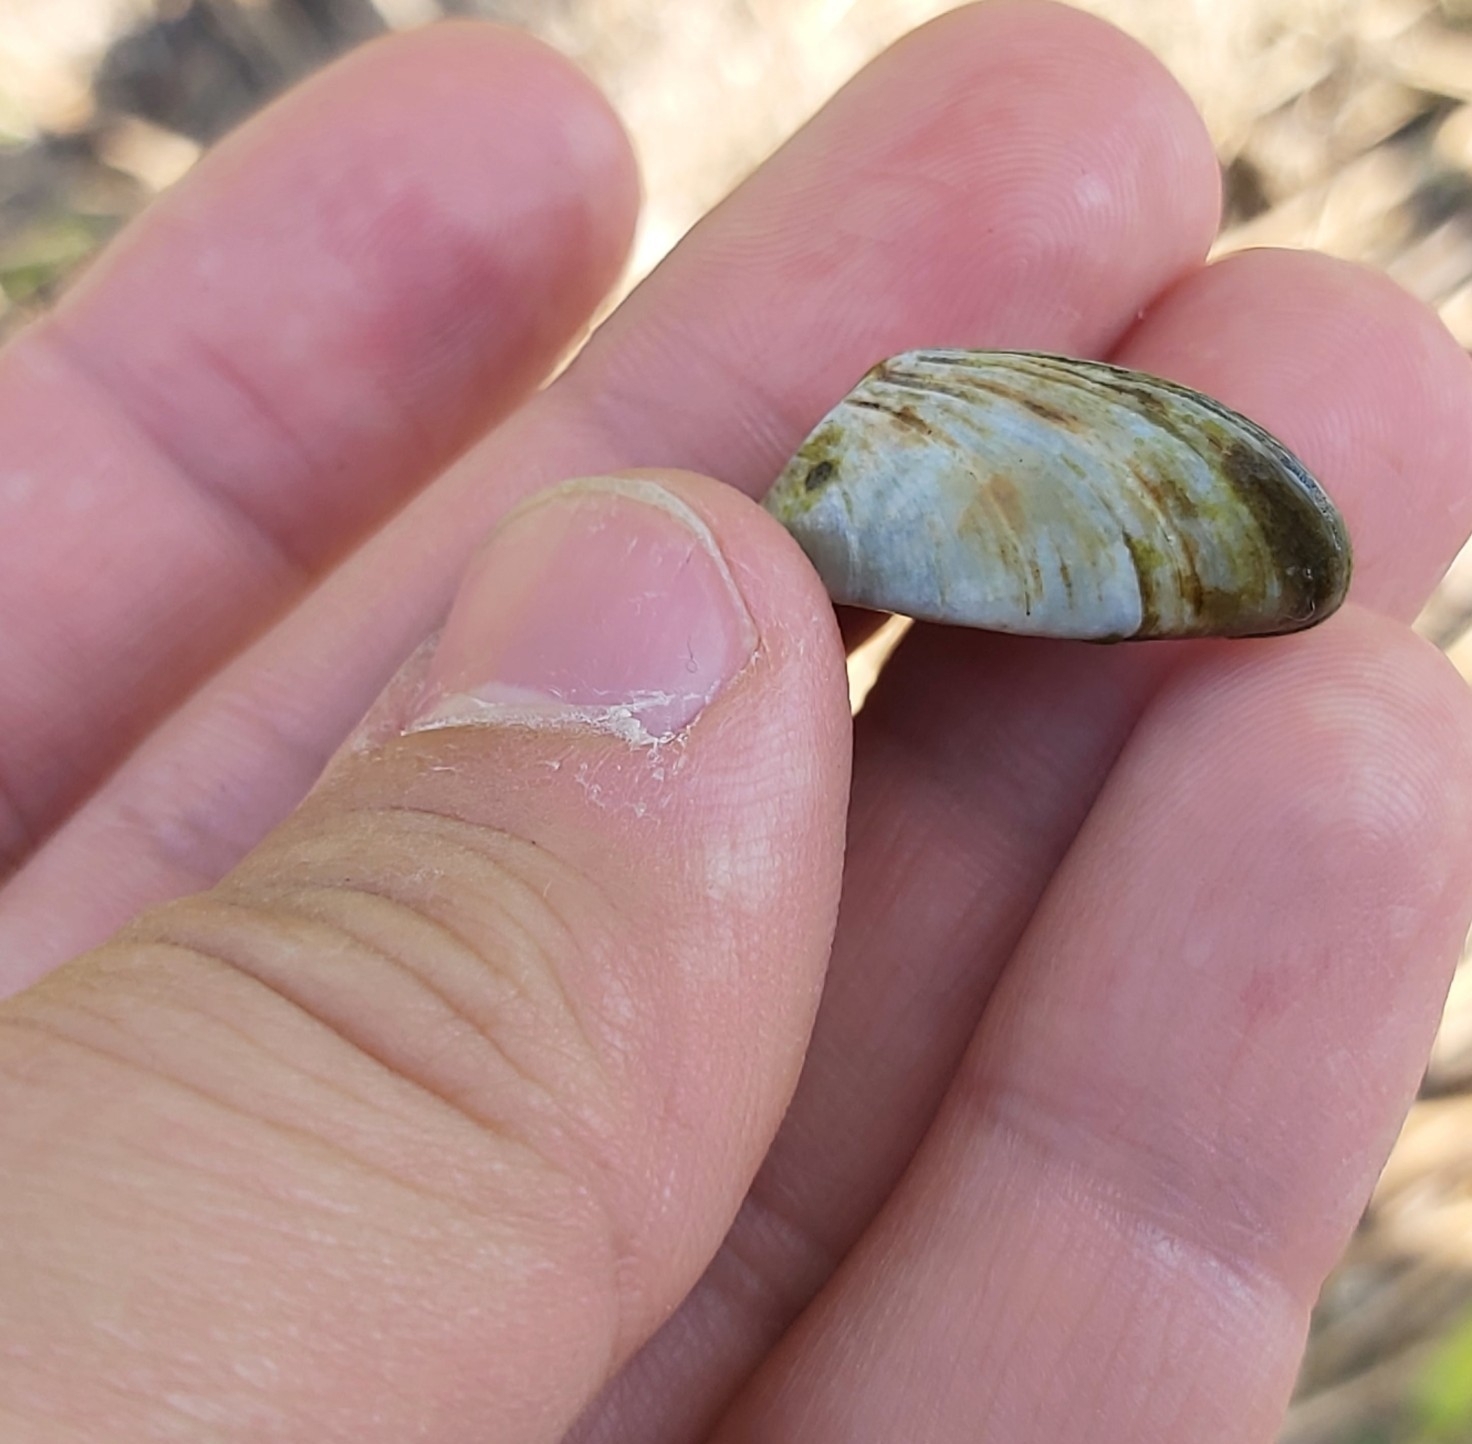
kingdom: Animalia
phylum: Mollusca
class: Bivalvia
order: Myida
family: Dreissenidae
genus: Dreissena
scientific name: Dreissena polymorpha
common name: Zebra mussel
